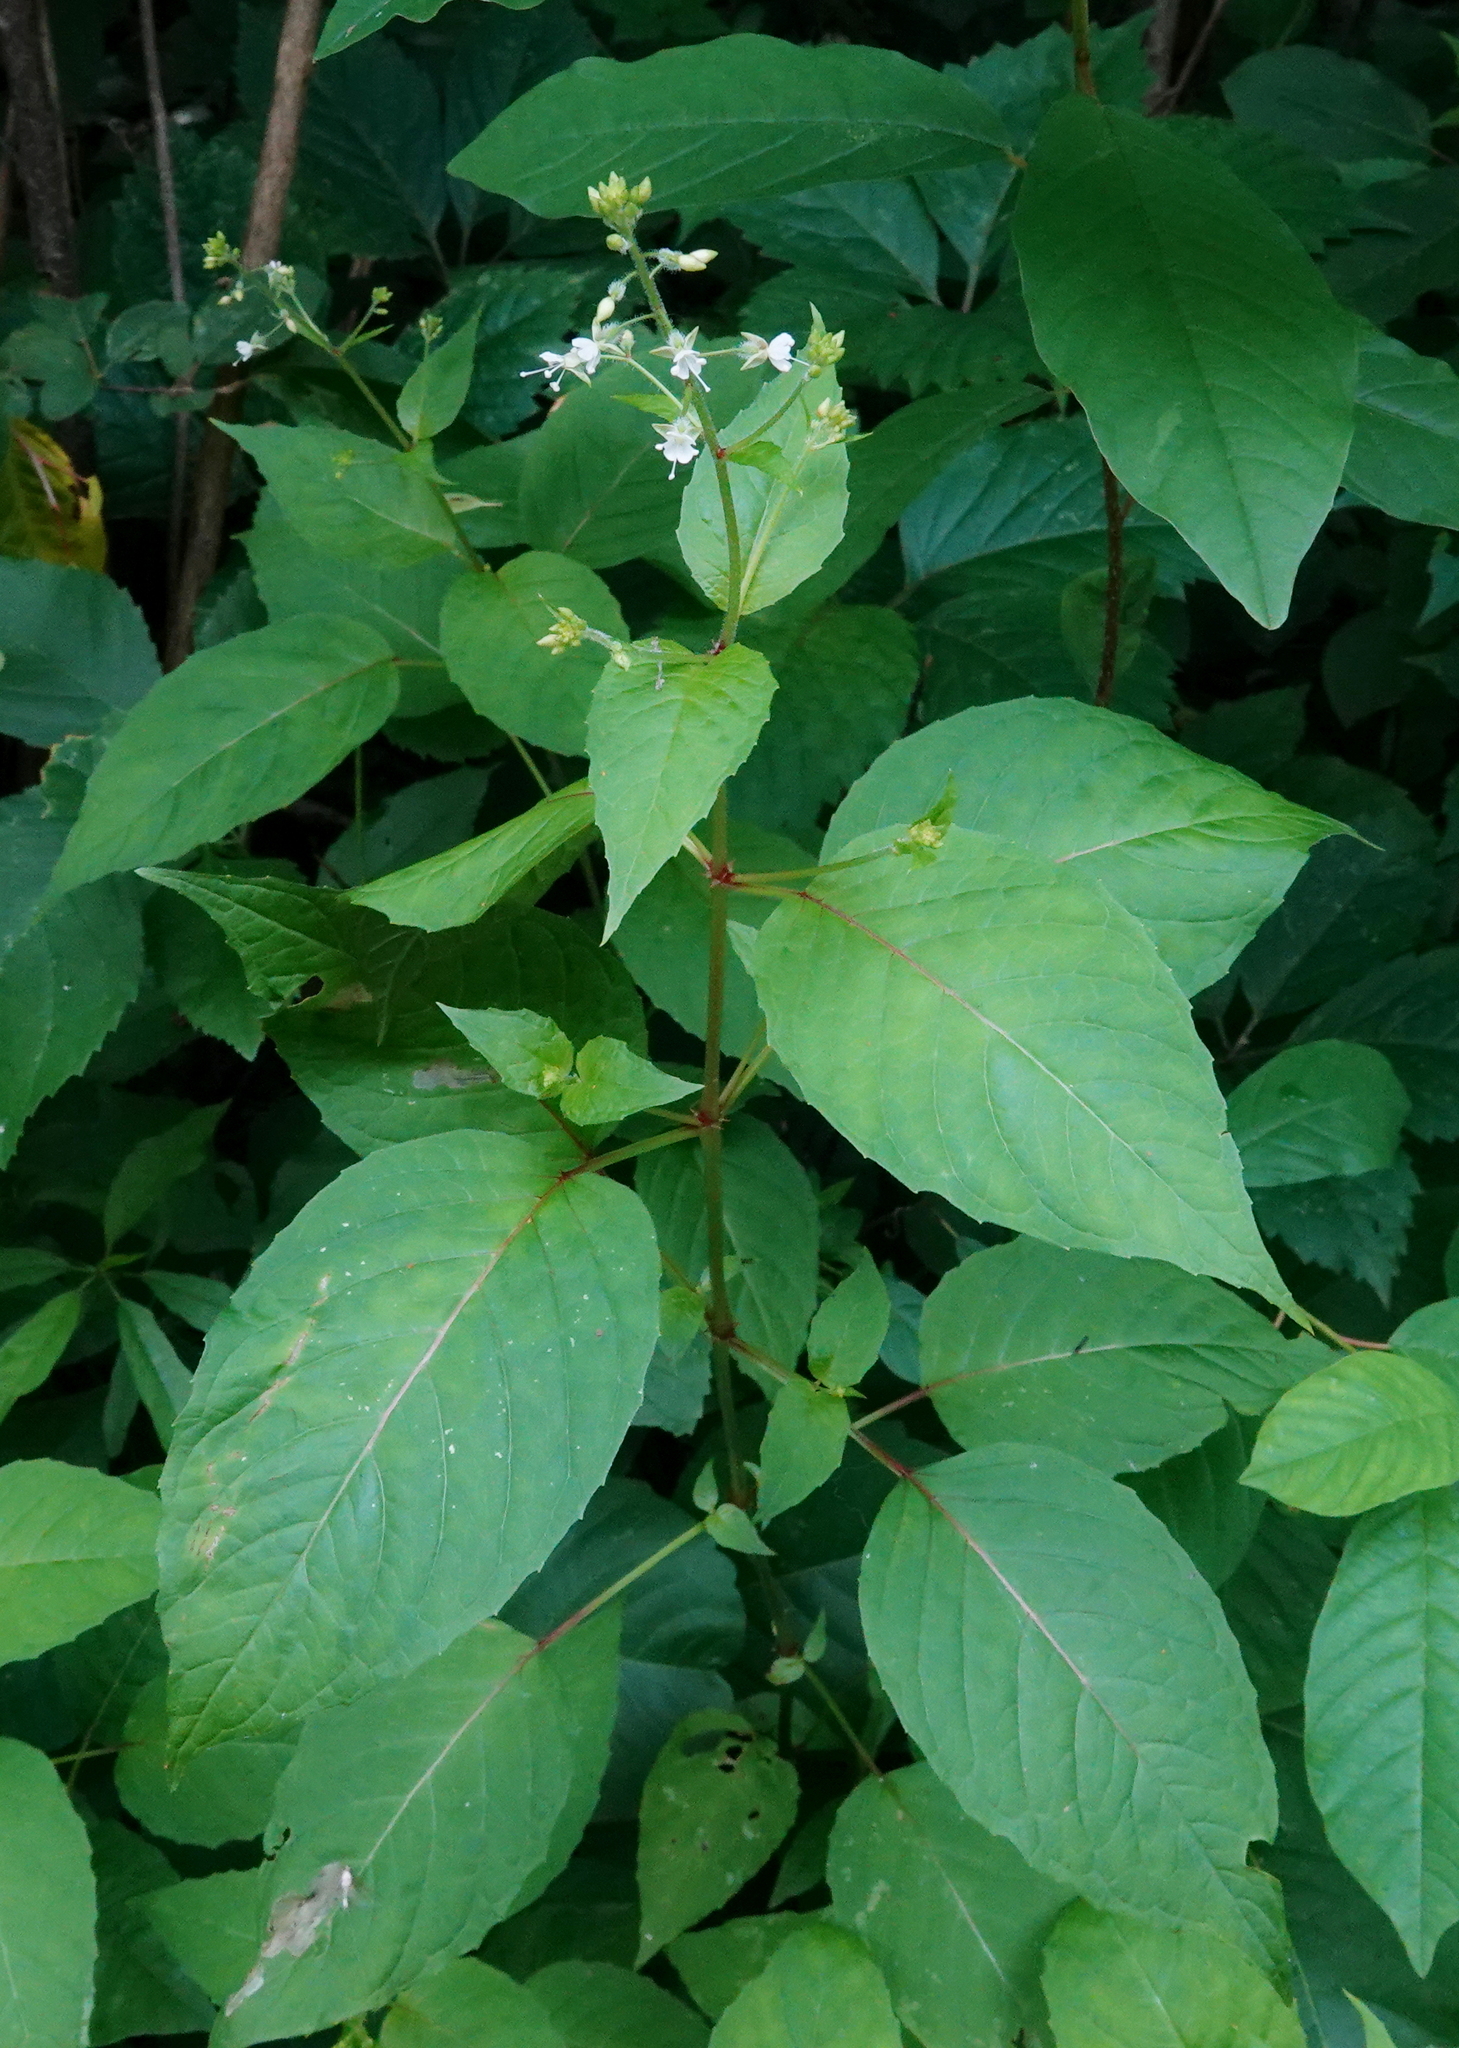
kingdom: Plantae
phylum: Tracheophyta
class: Magnoliopsida
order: Myrtales
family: Onagraceae
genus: Circaea
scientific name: Circaea canadensis
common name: Broad-leaved enchanter's nightshade
